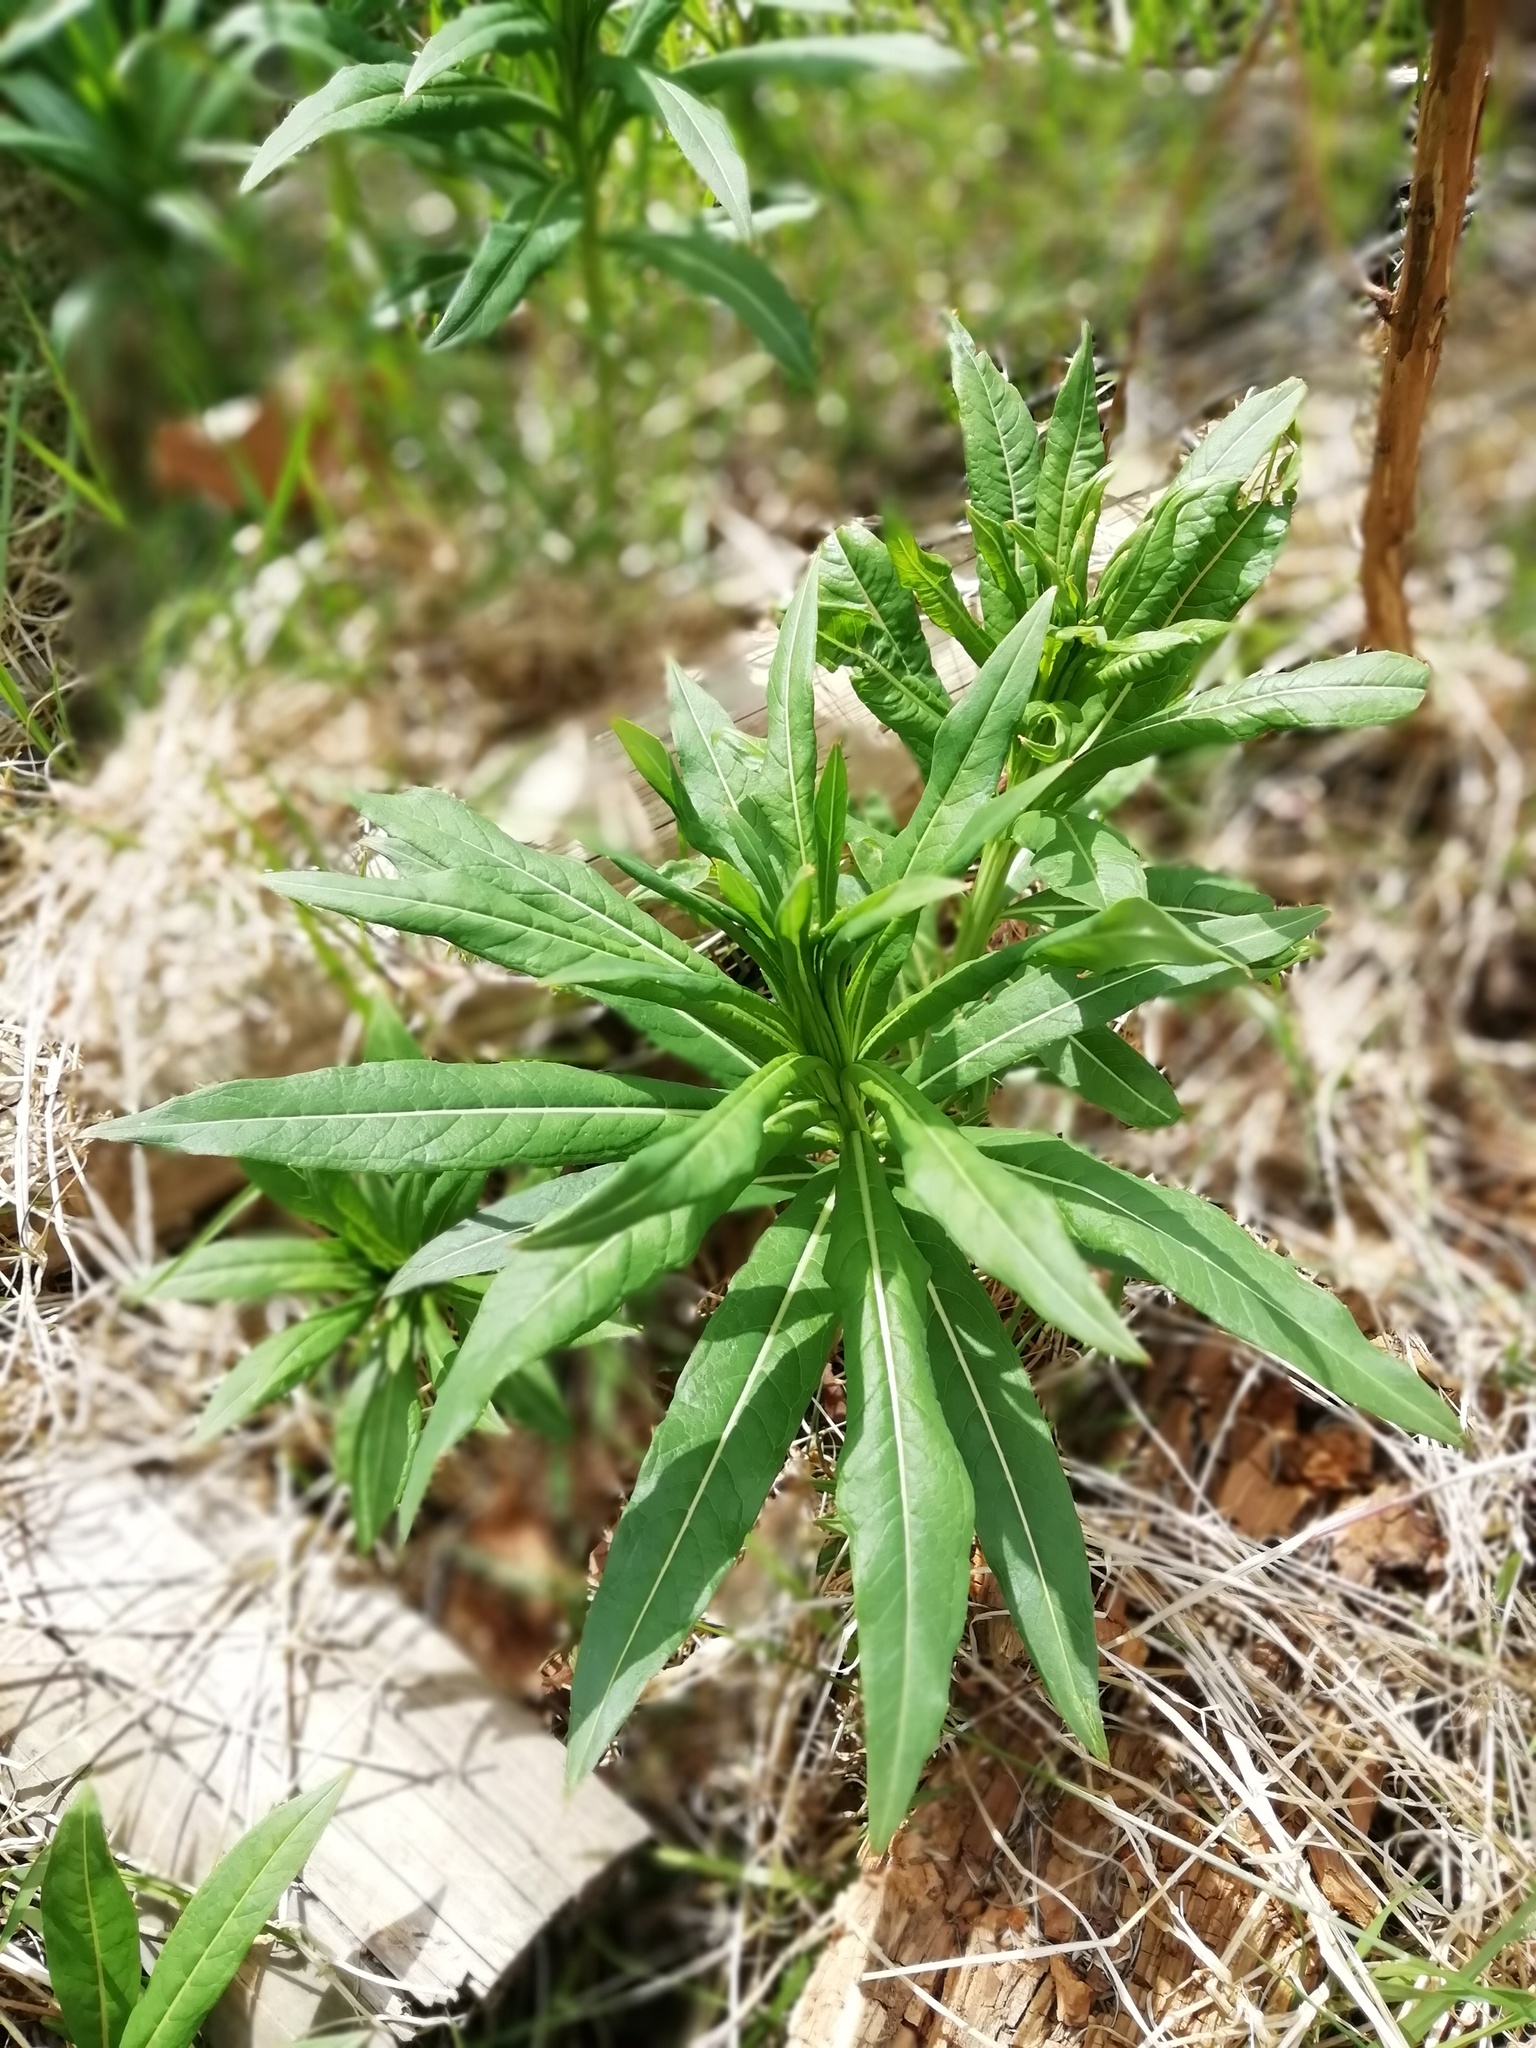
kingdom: Plantae
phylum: Tracheophyta
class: Magnoliopsida
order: Myrtales
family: Onagraceae
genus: Chamaenerion
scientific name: Chamaenerion angustifolium
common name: Fireweed
